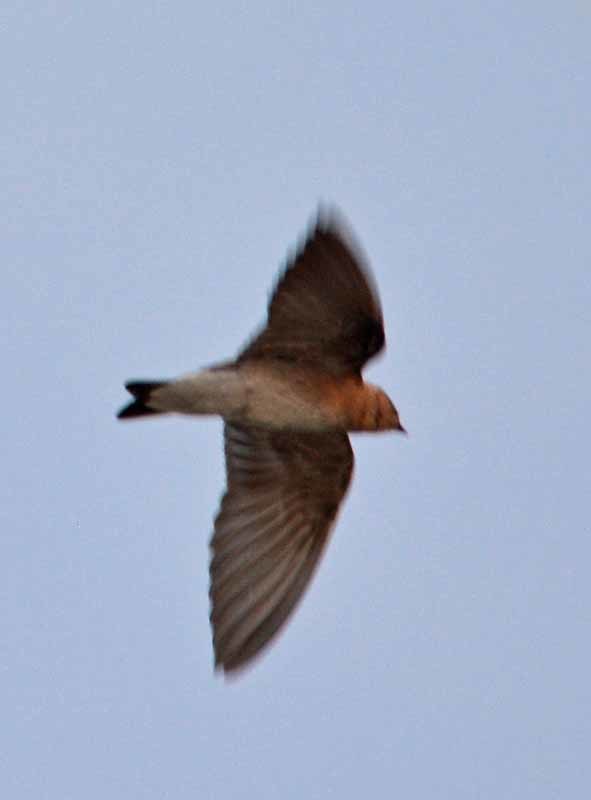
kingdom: Animalia
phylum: Chordata
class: Aves
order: Passeriformes
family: Hirundinidae
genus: Petrochelidon
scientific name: Petrochelidon pyrrhonota
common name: American cliff swallow
